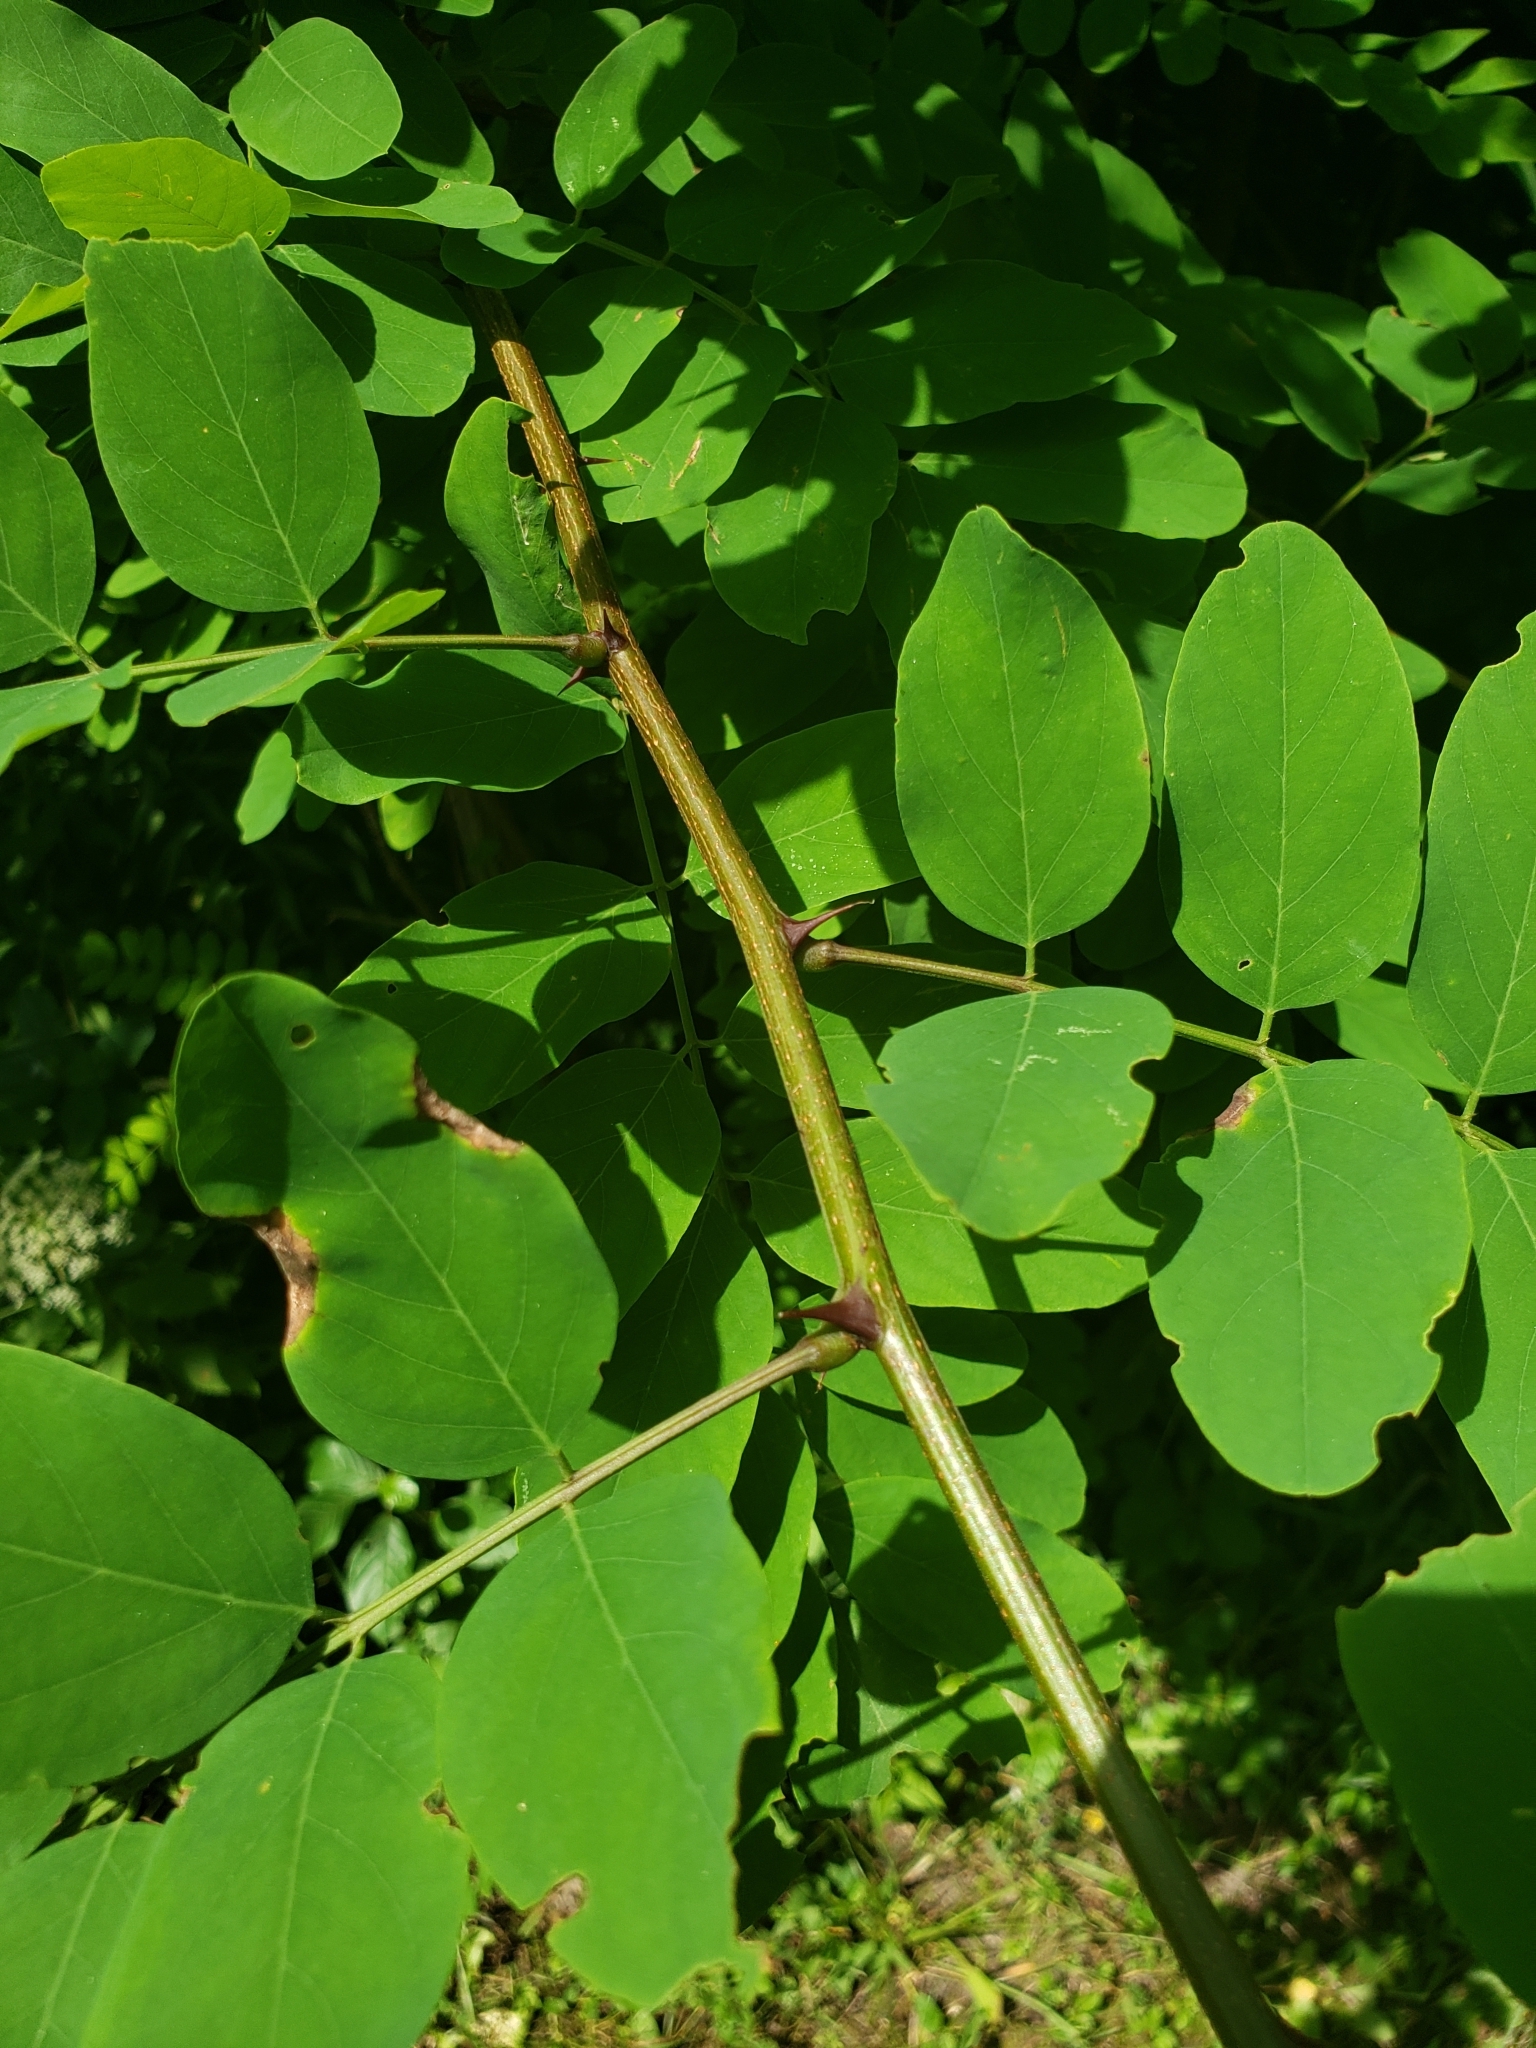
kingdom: Plantae
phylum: Tracheophyta
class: Magnoliopsida
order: Fabales
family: Fabaceae
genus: Robinia
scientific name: Robinia pseudoacacia
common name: Black locust
